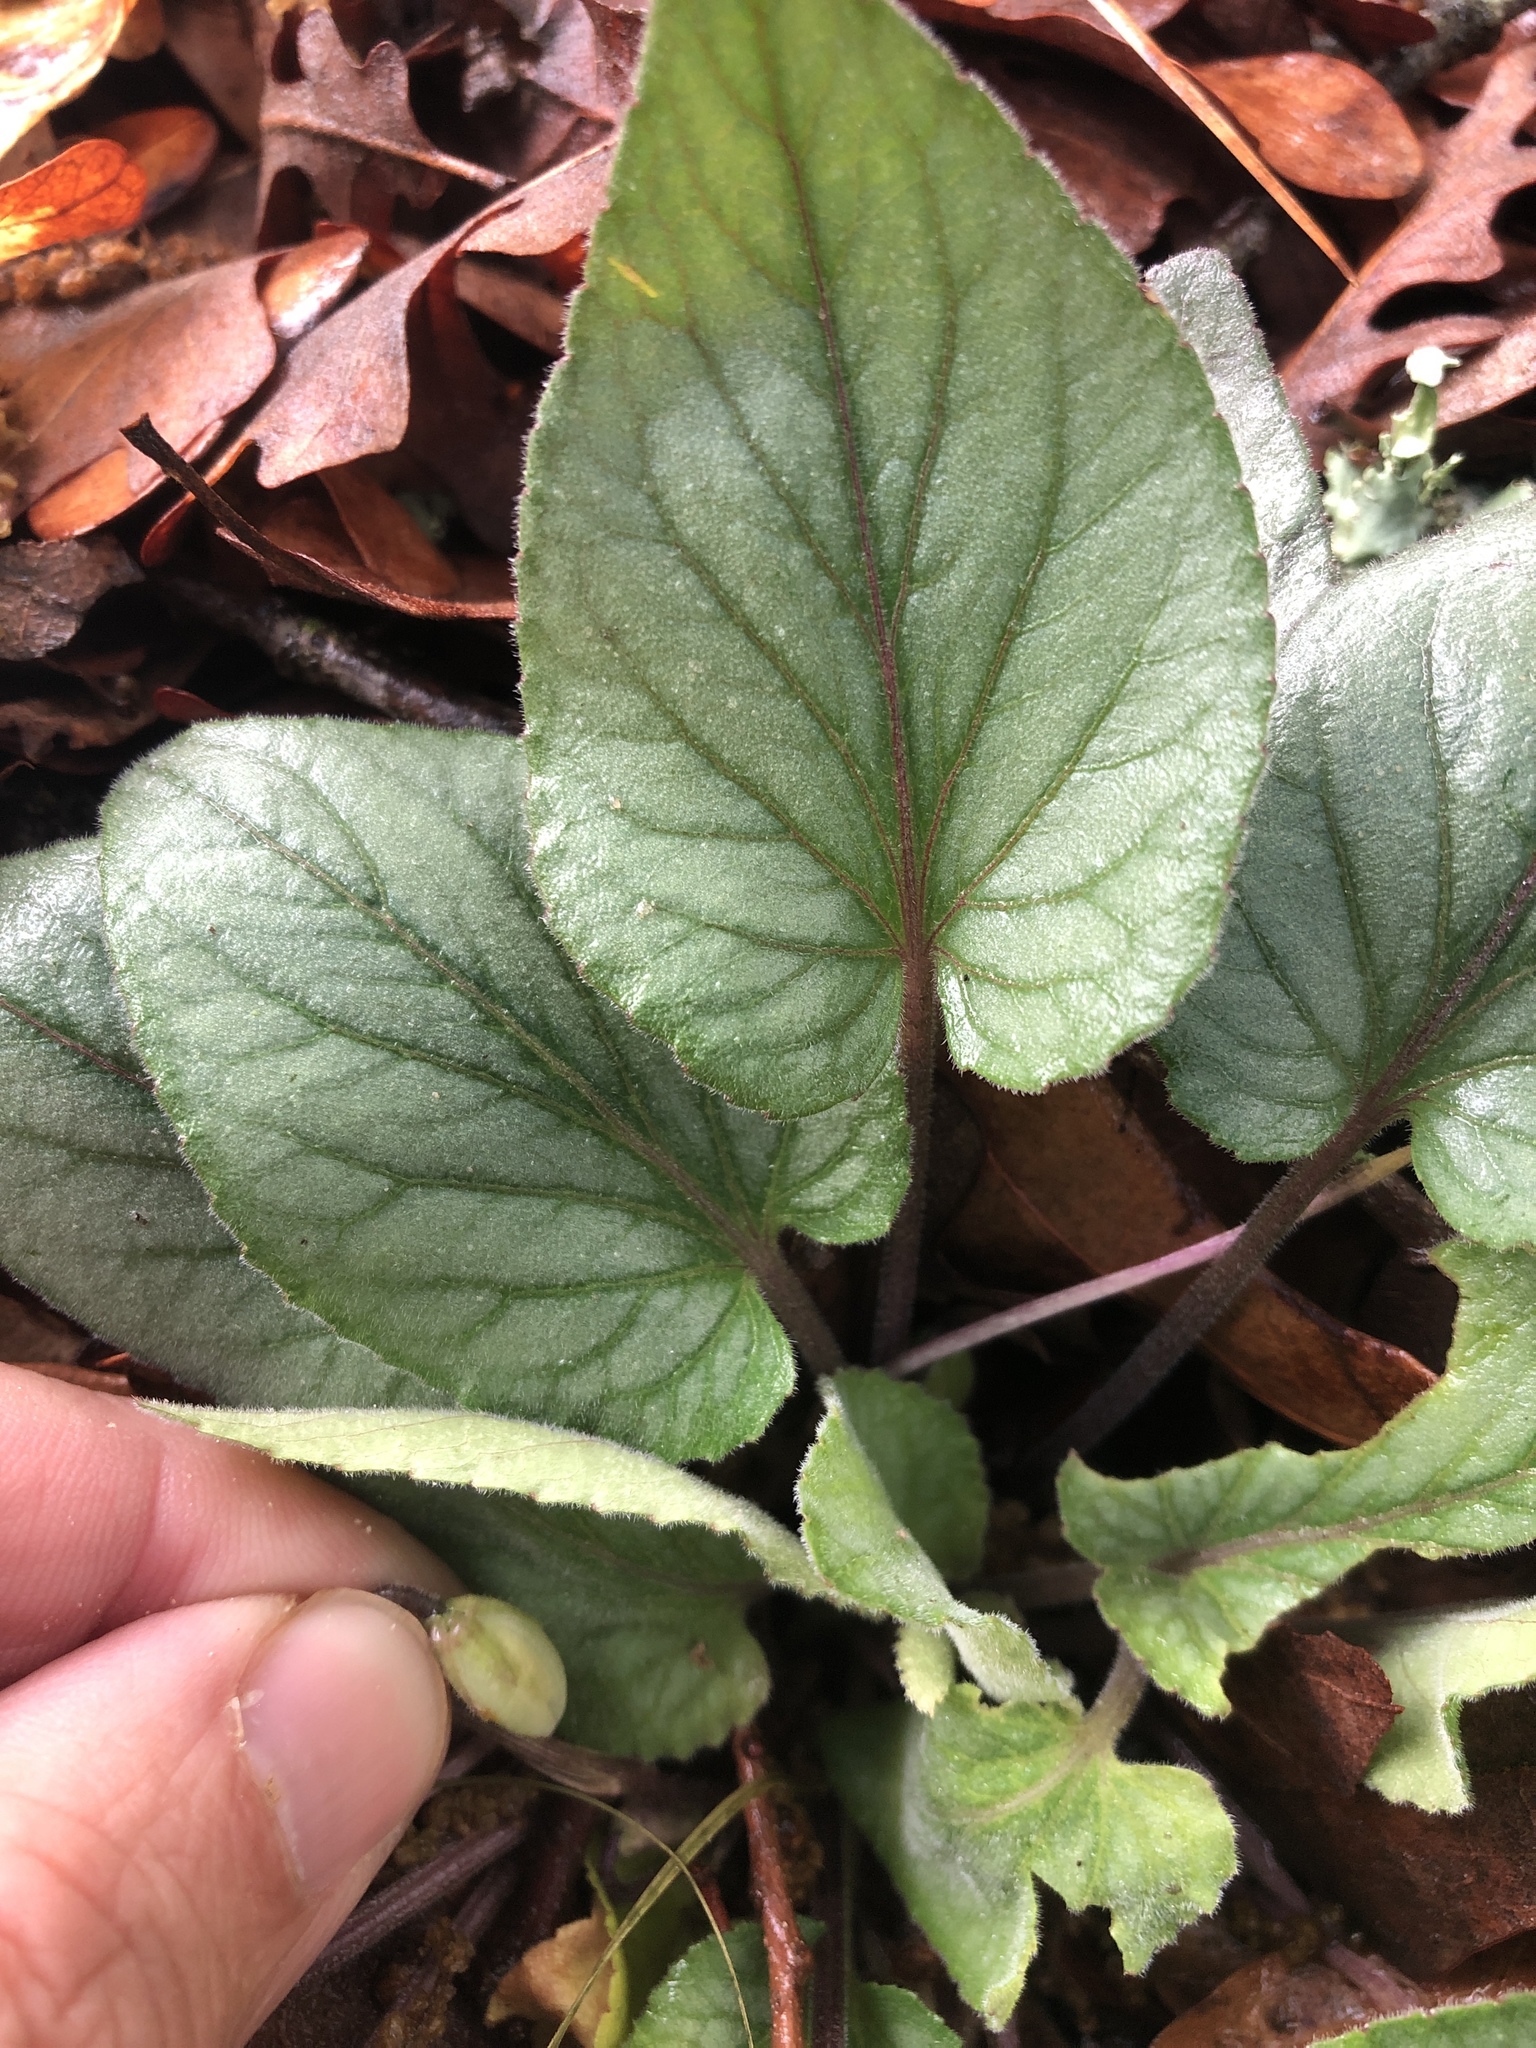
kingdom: Plantae
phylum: Tracheophyta
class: Magnoliopsida
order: Malpighiales
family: Violaceae
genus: Viola
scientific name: Viola villosa
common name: Carolina violet
